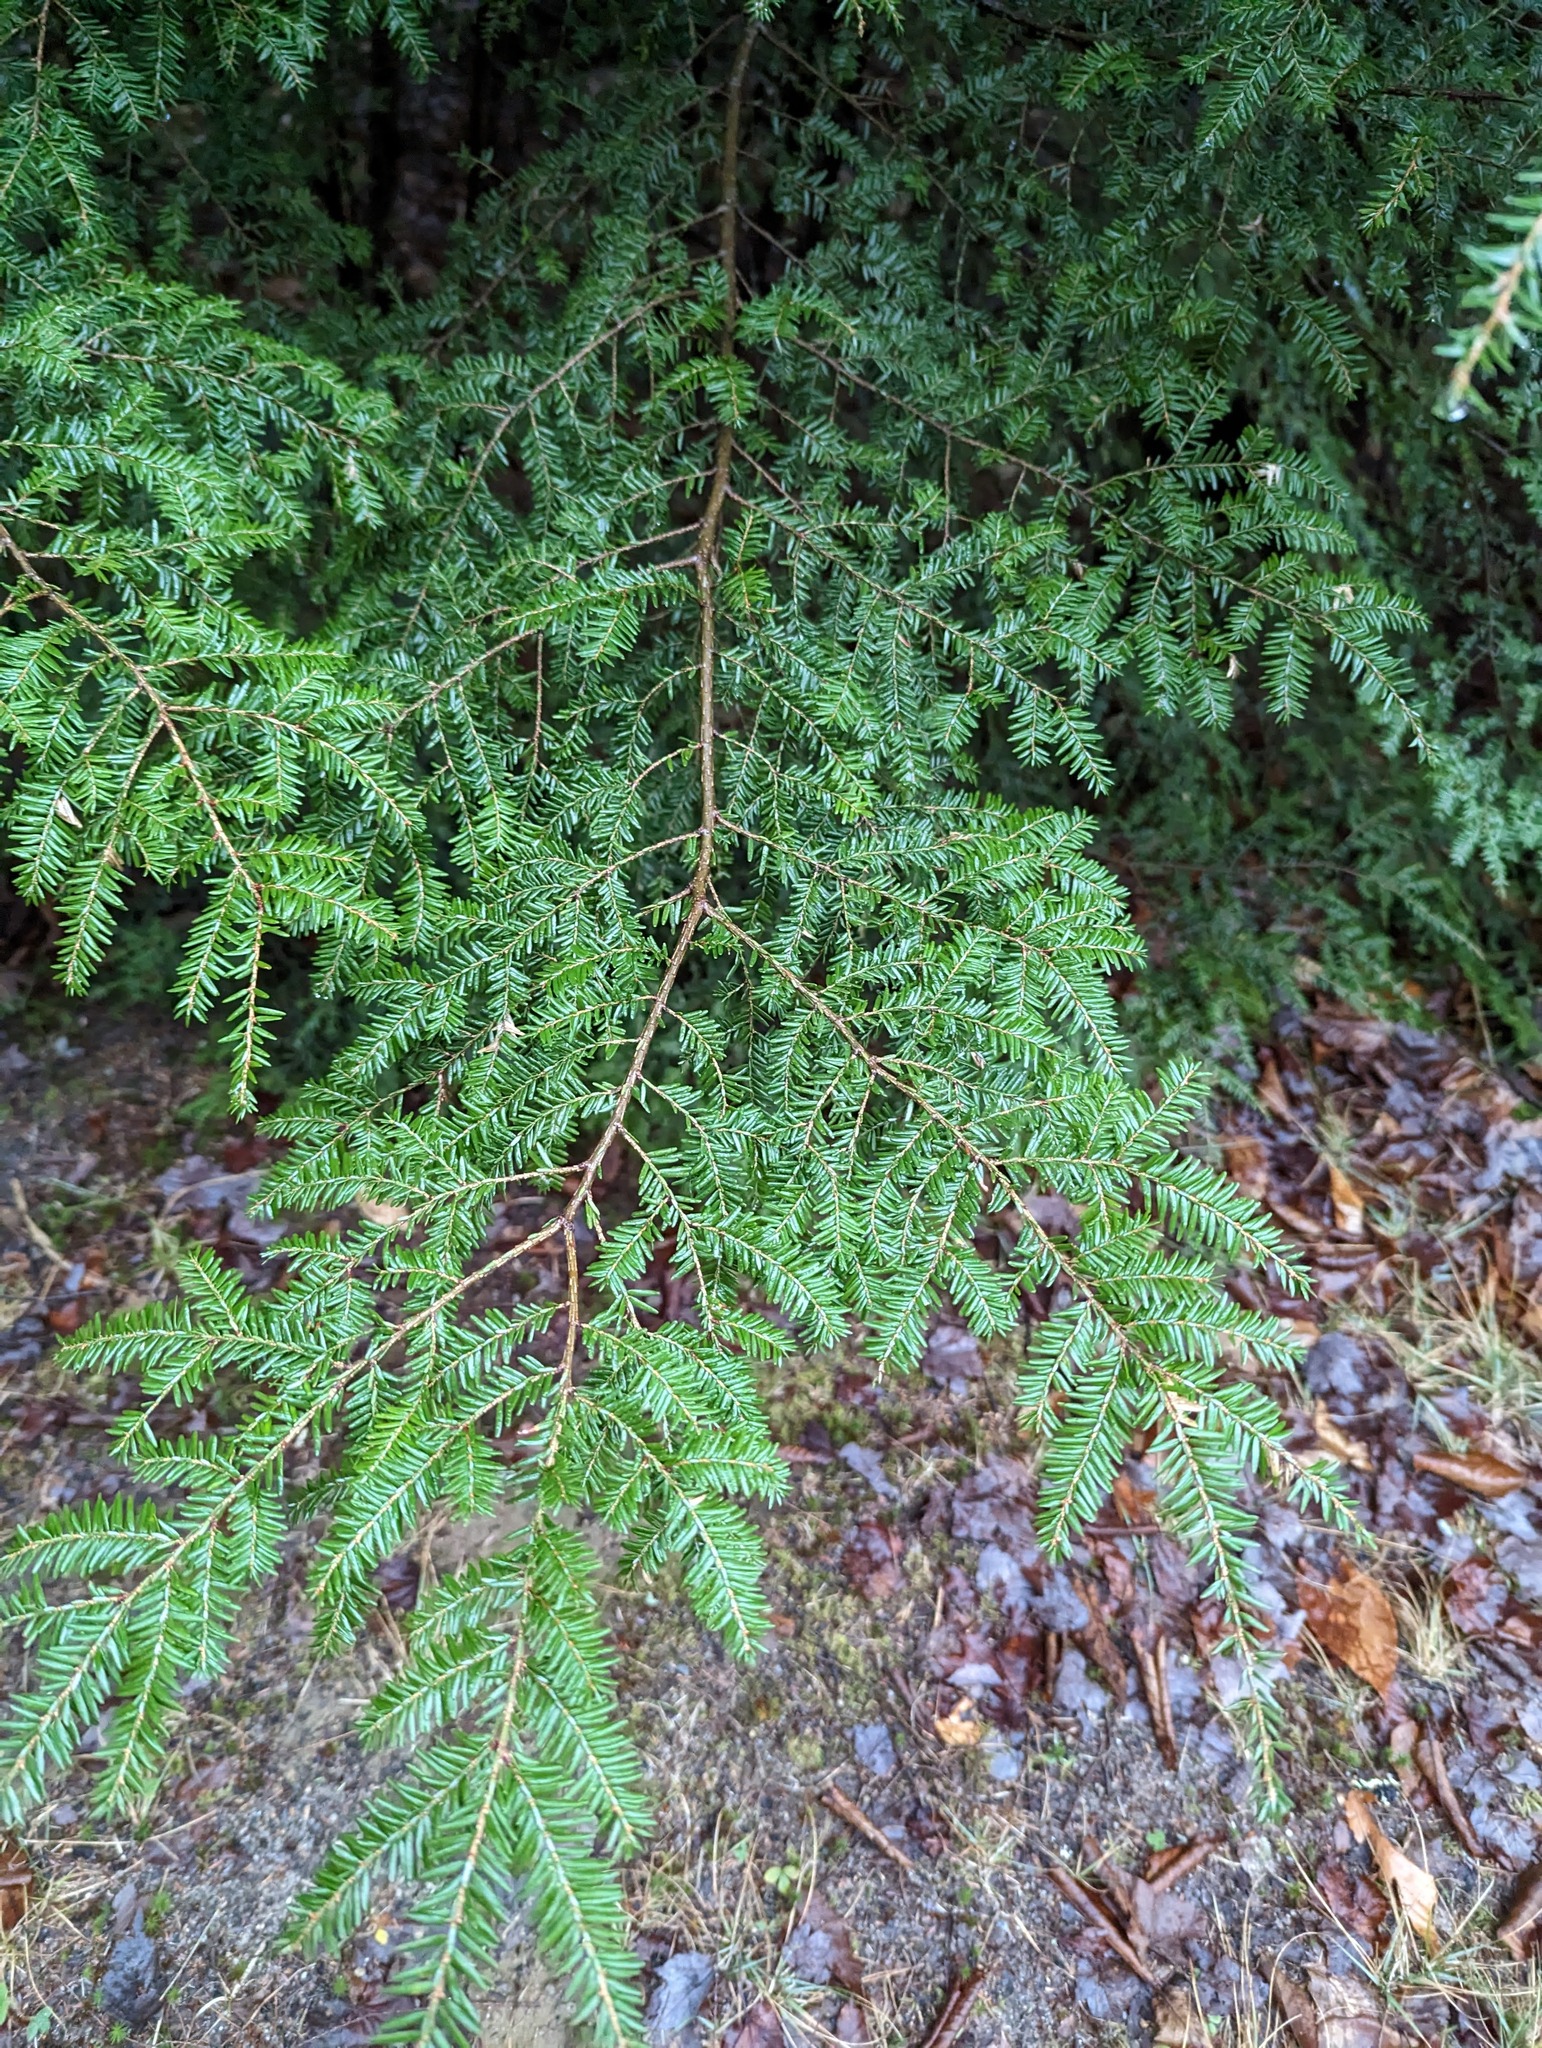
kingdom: Plantae
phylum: Tracheophyta
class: Pinopsida
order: Pinales
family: Pinaceae
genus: Tsuga
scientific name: Tsuga canadensis
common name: Eastern hemlock
